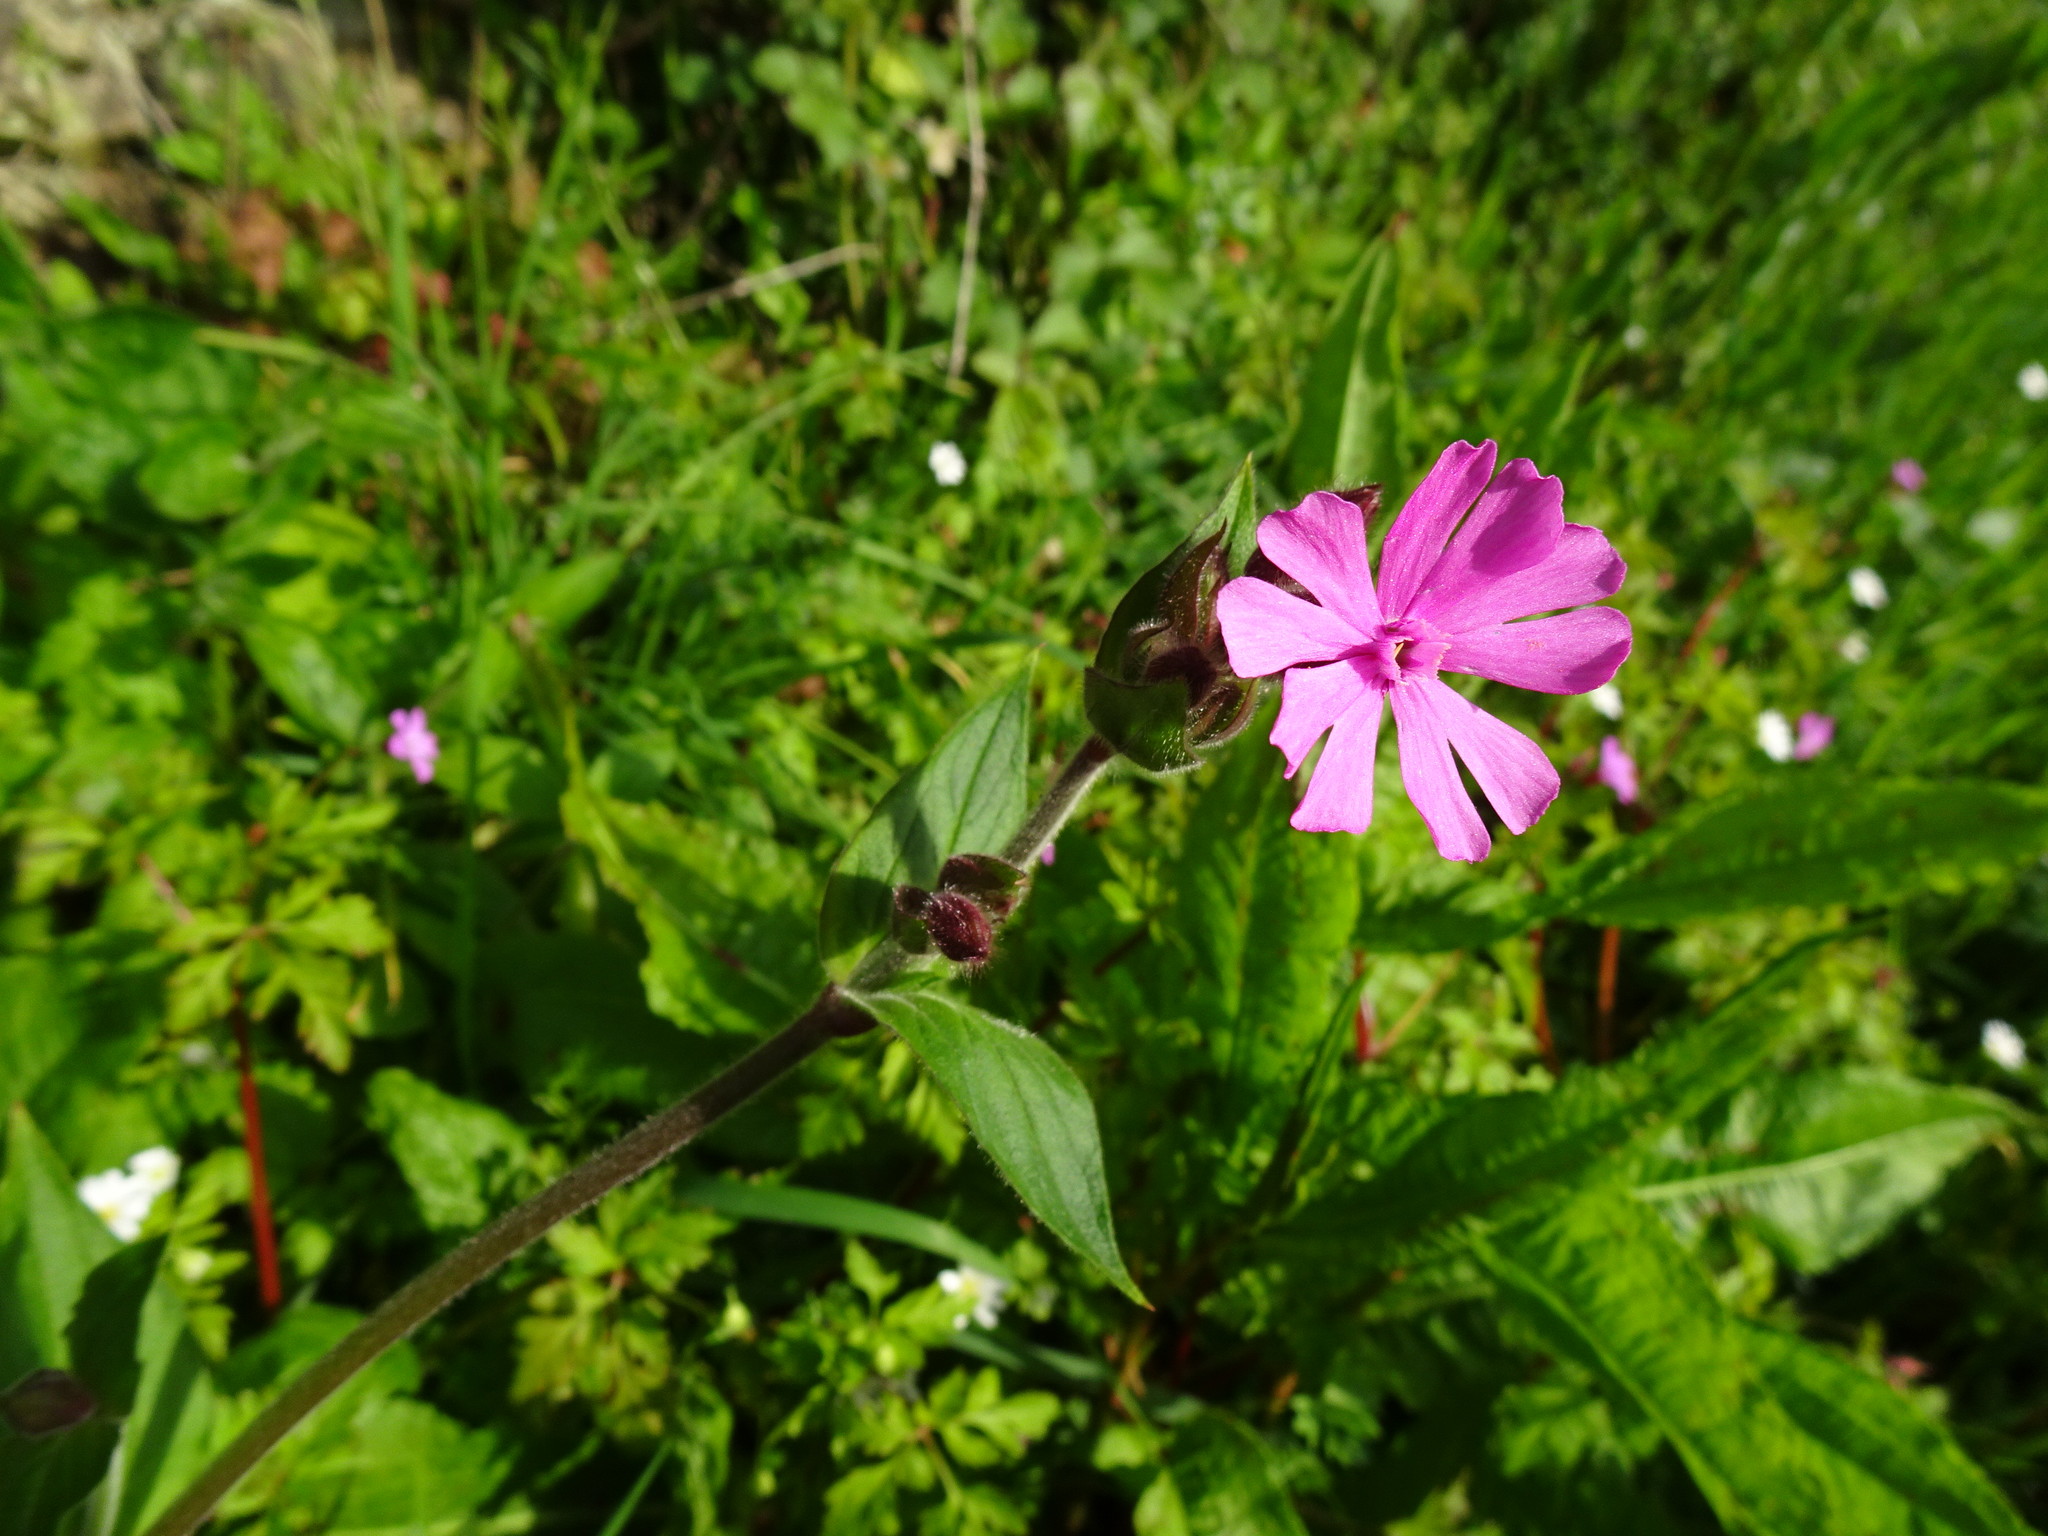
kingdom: Plantae
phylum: Tracheophyta
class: Magnoliopsida
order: Caryophyllales
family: Caryophyllaceae
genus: Silene
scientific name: Silene dioica
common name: Red campion
